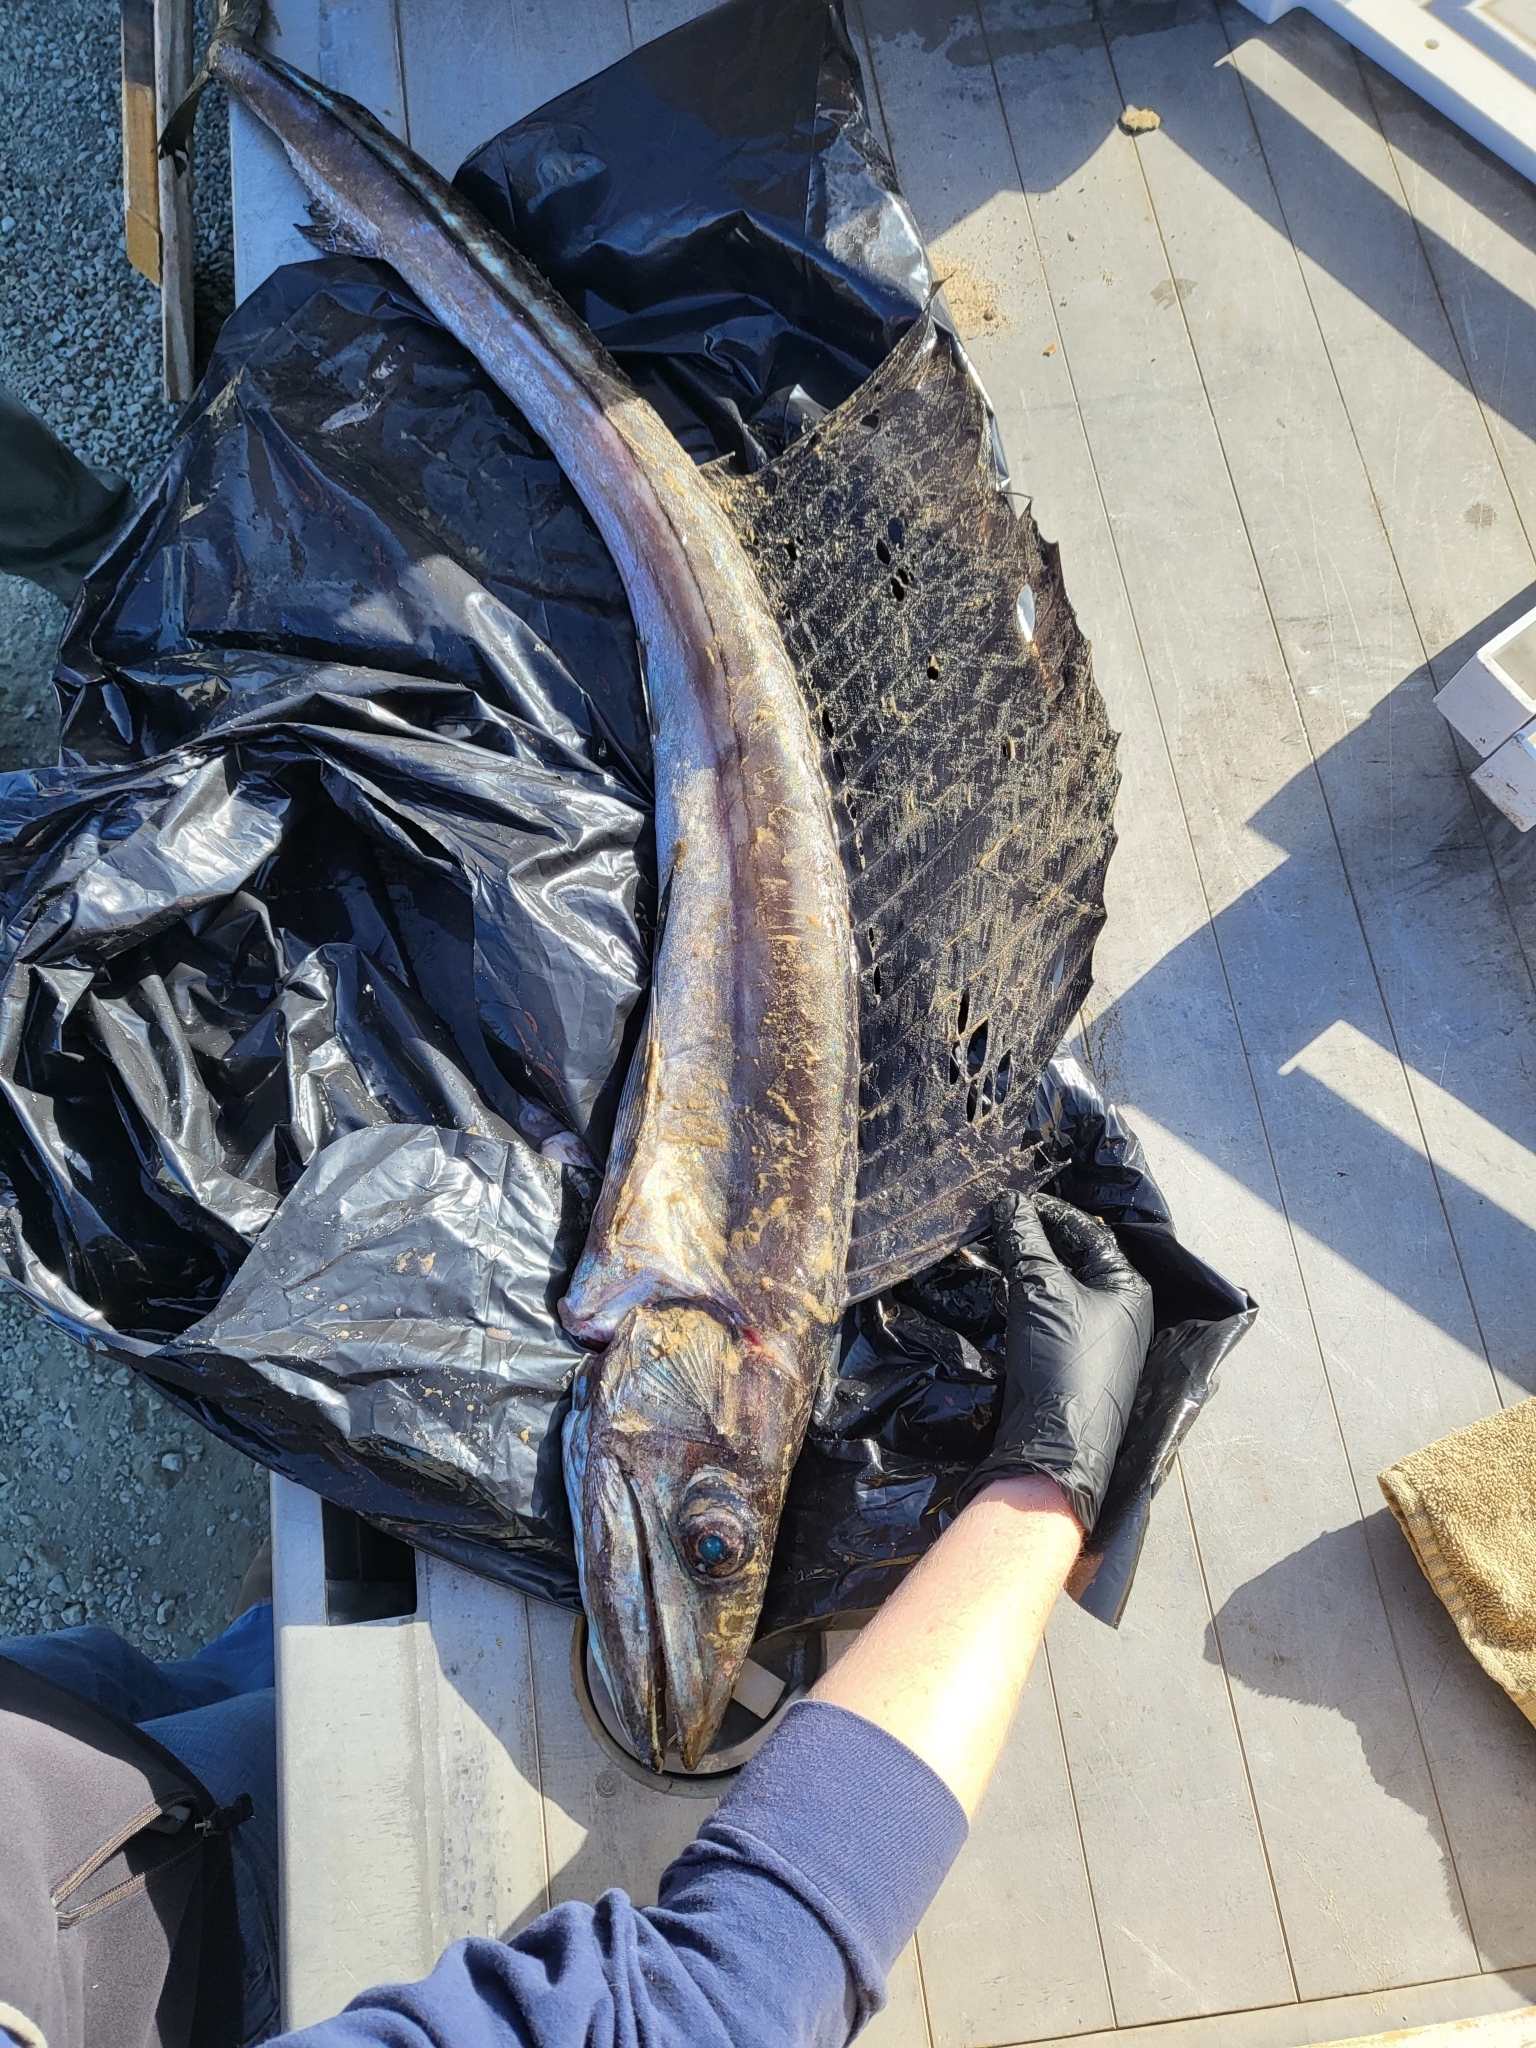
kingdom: Animalia
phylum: Chordata
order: Aulopiformes
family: Alepisauridae
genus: Alepisaurus
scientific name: Alepisaurus ferox
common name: Longnose lancetfish
